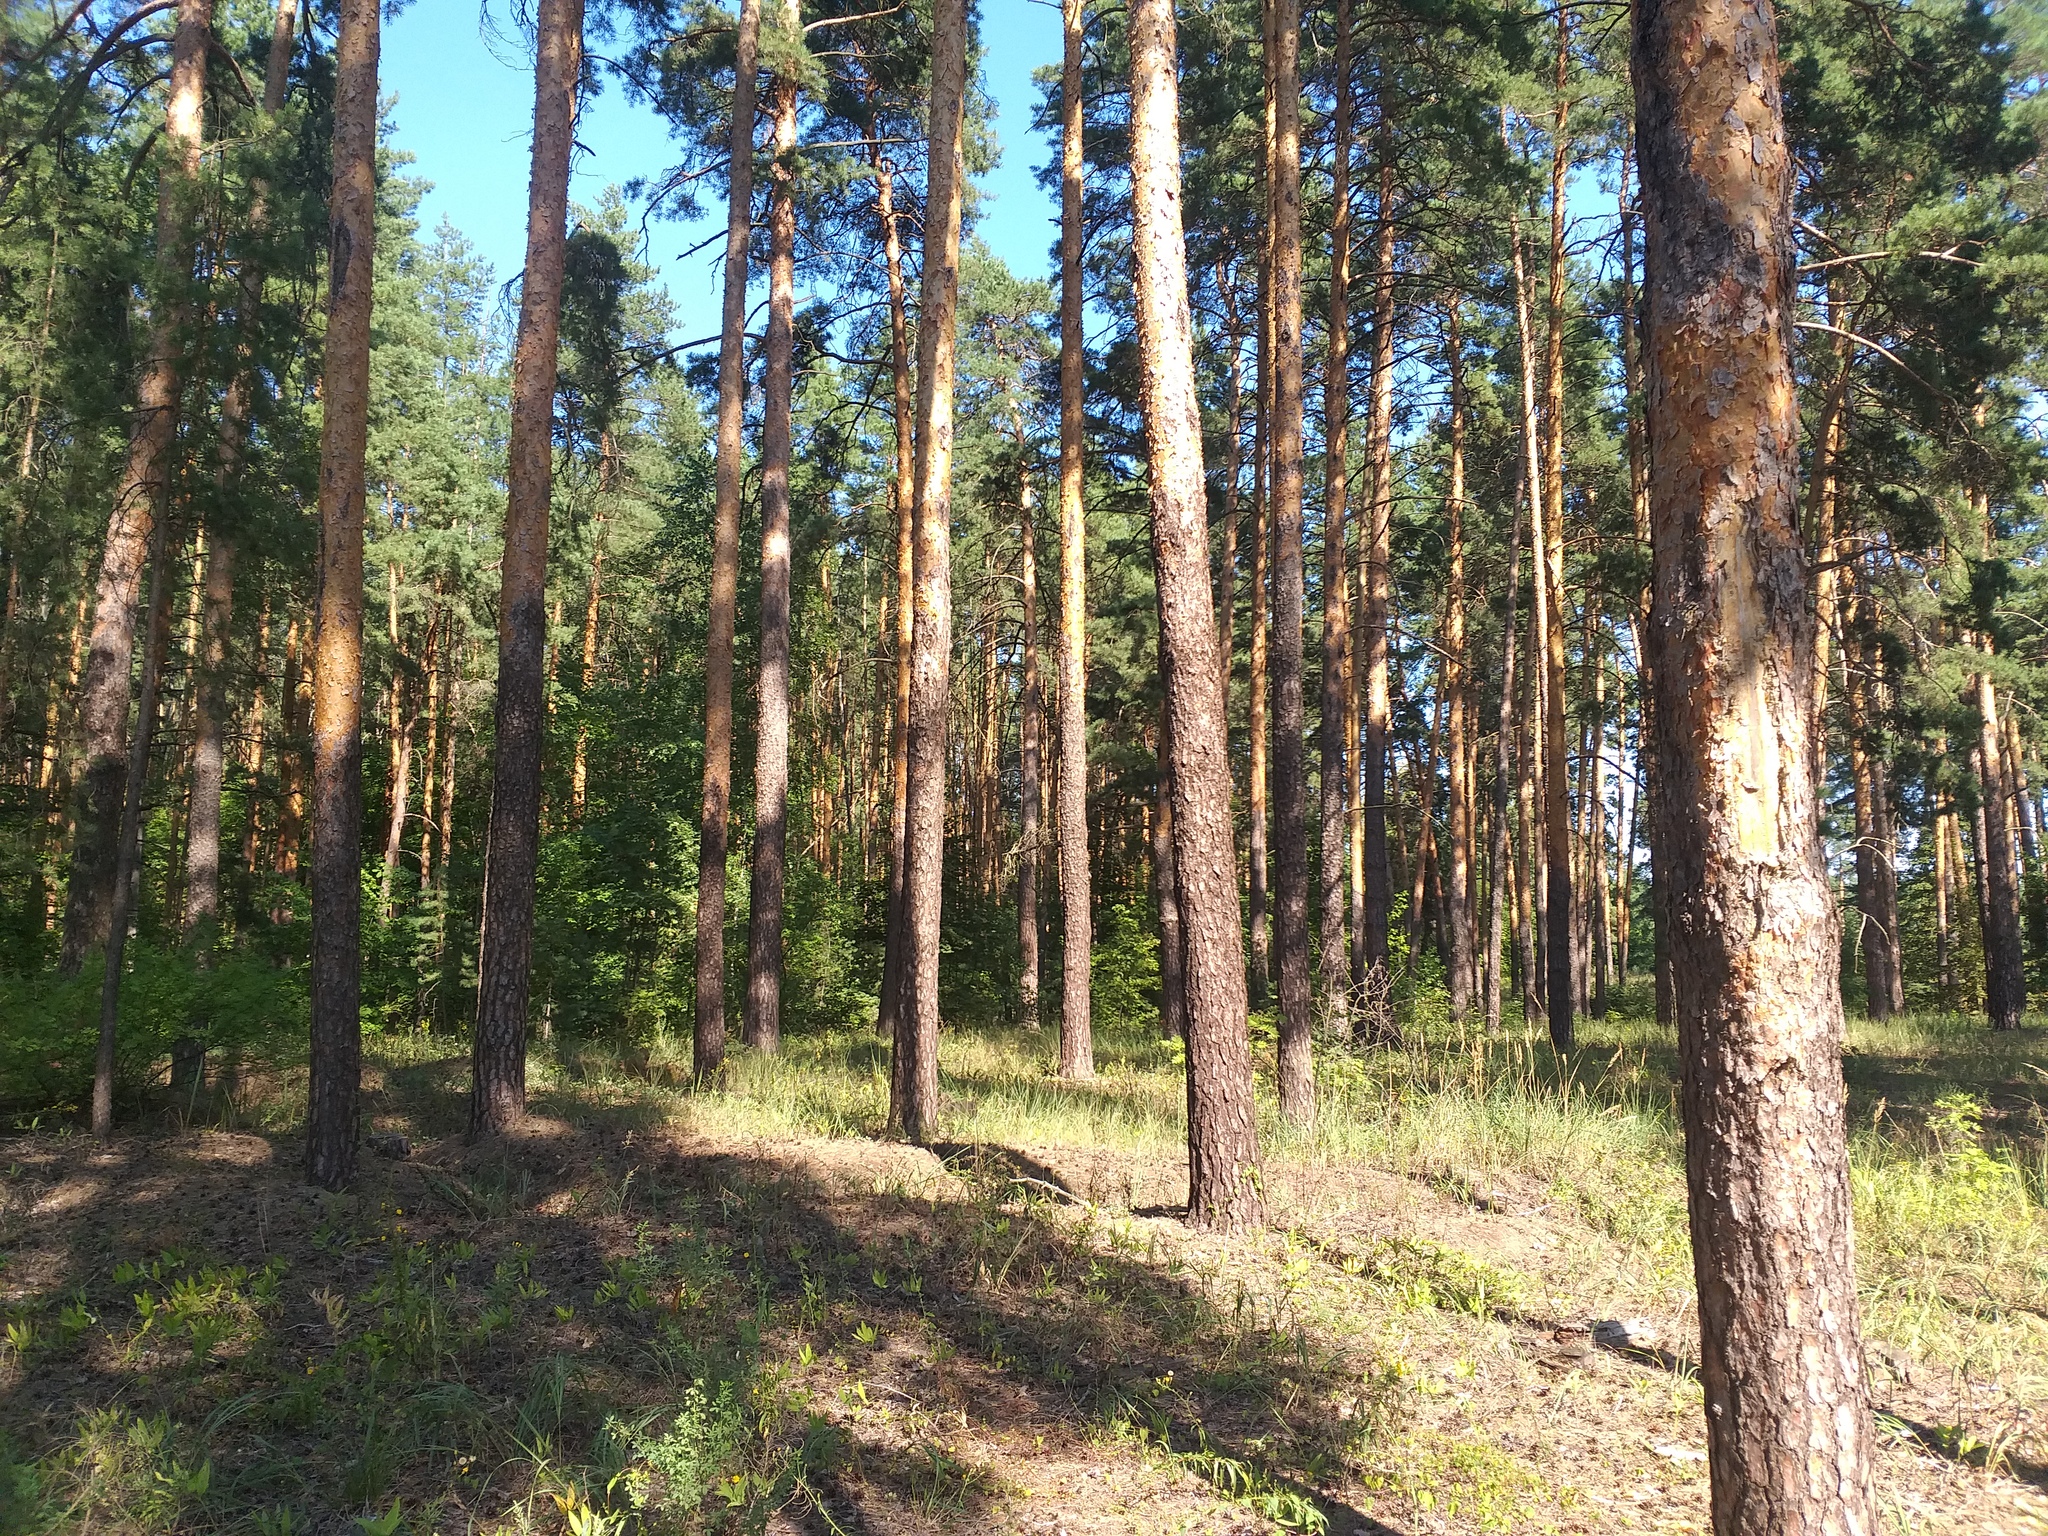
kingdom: Plantae
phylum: Tracheophyta
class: Pinopsida
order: Pinales
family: Pinaceae
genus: Pinus
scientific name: Pinus sylvestris
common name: Scots pine
